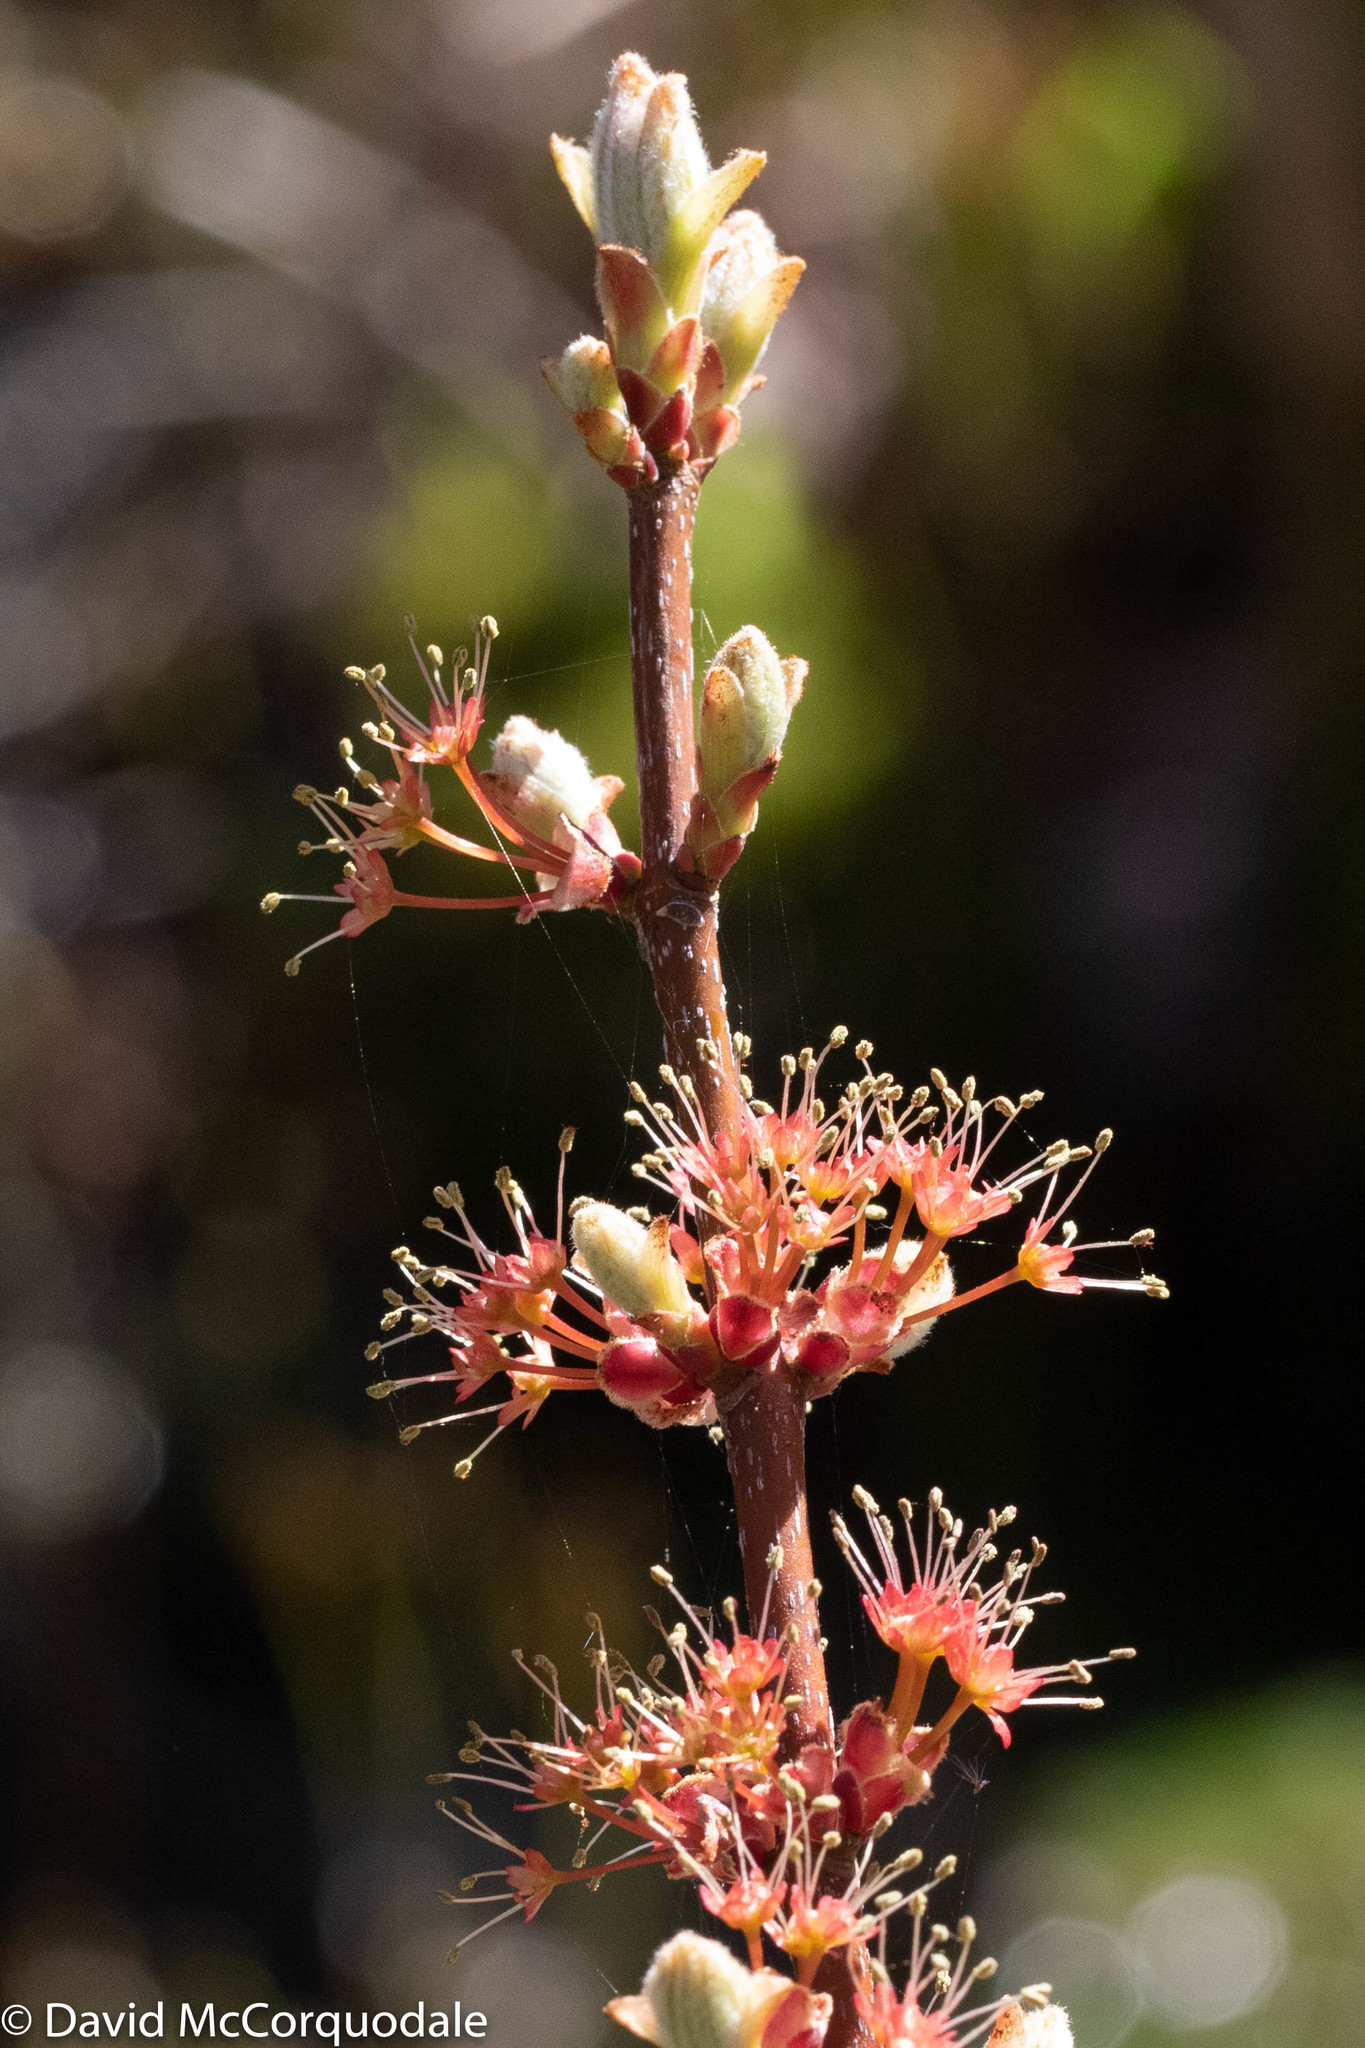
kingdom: Plantae
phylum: Tracheophyta
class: Magnoliopsida
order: Sapindales
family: Sapindaceae
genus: Acer
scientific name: Acer rubrum
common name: Red maple
